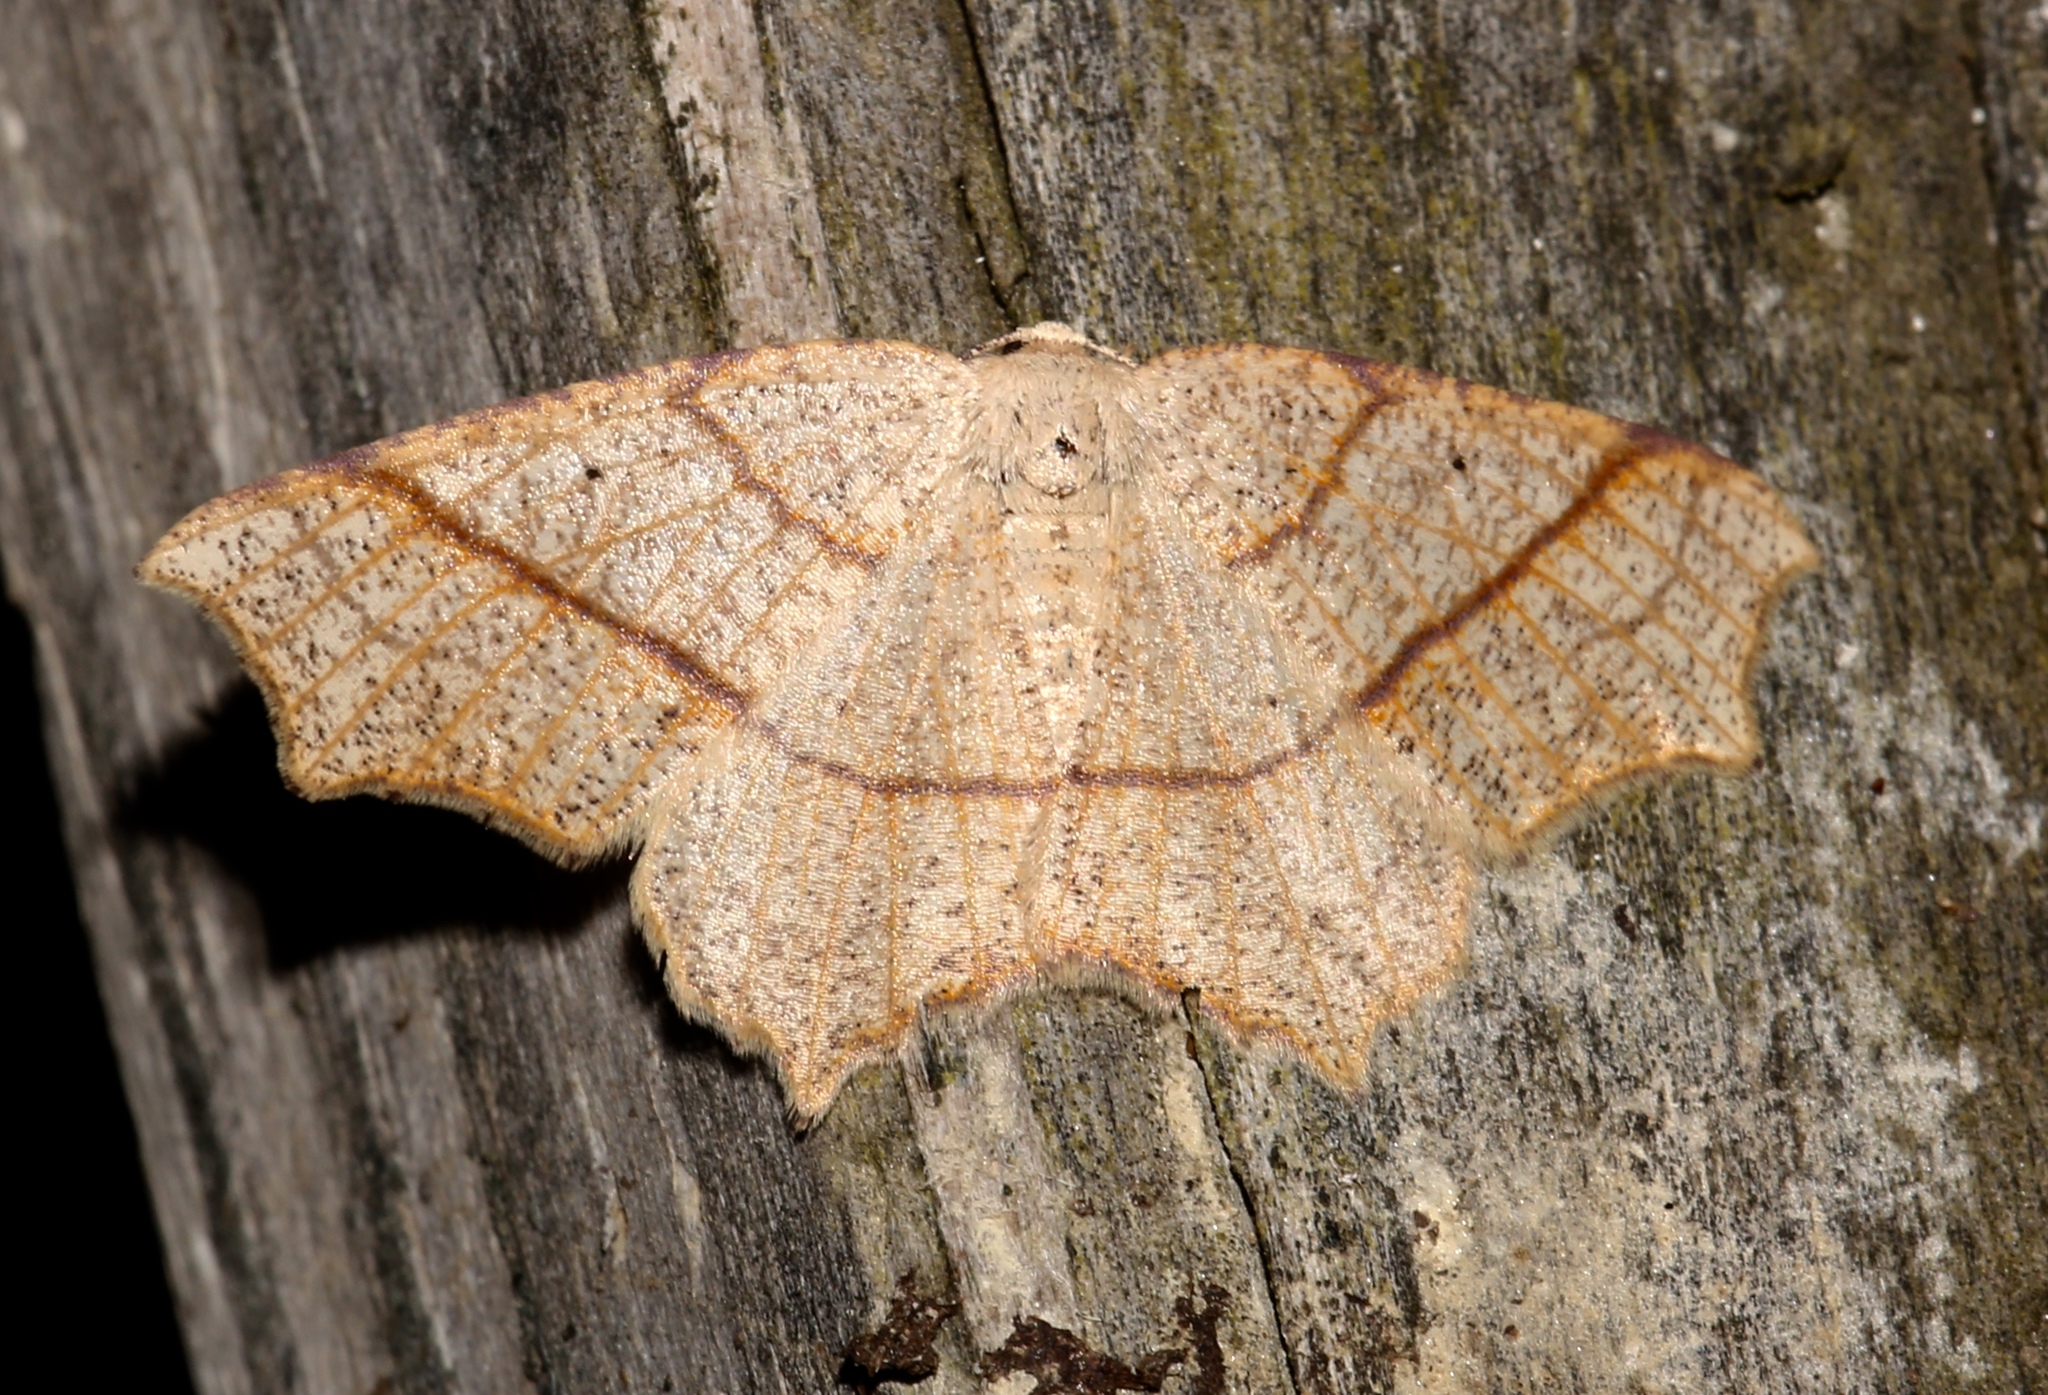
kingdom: Animalia
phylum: Arthropoda
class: Insecta
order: Lepidoptera
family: Geometridae
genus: Besma
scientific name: Besma quercivoraria
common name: Oak besma
